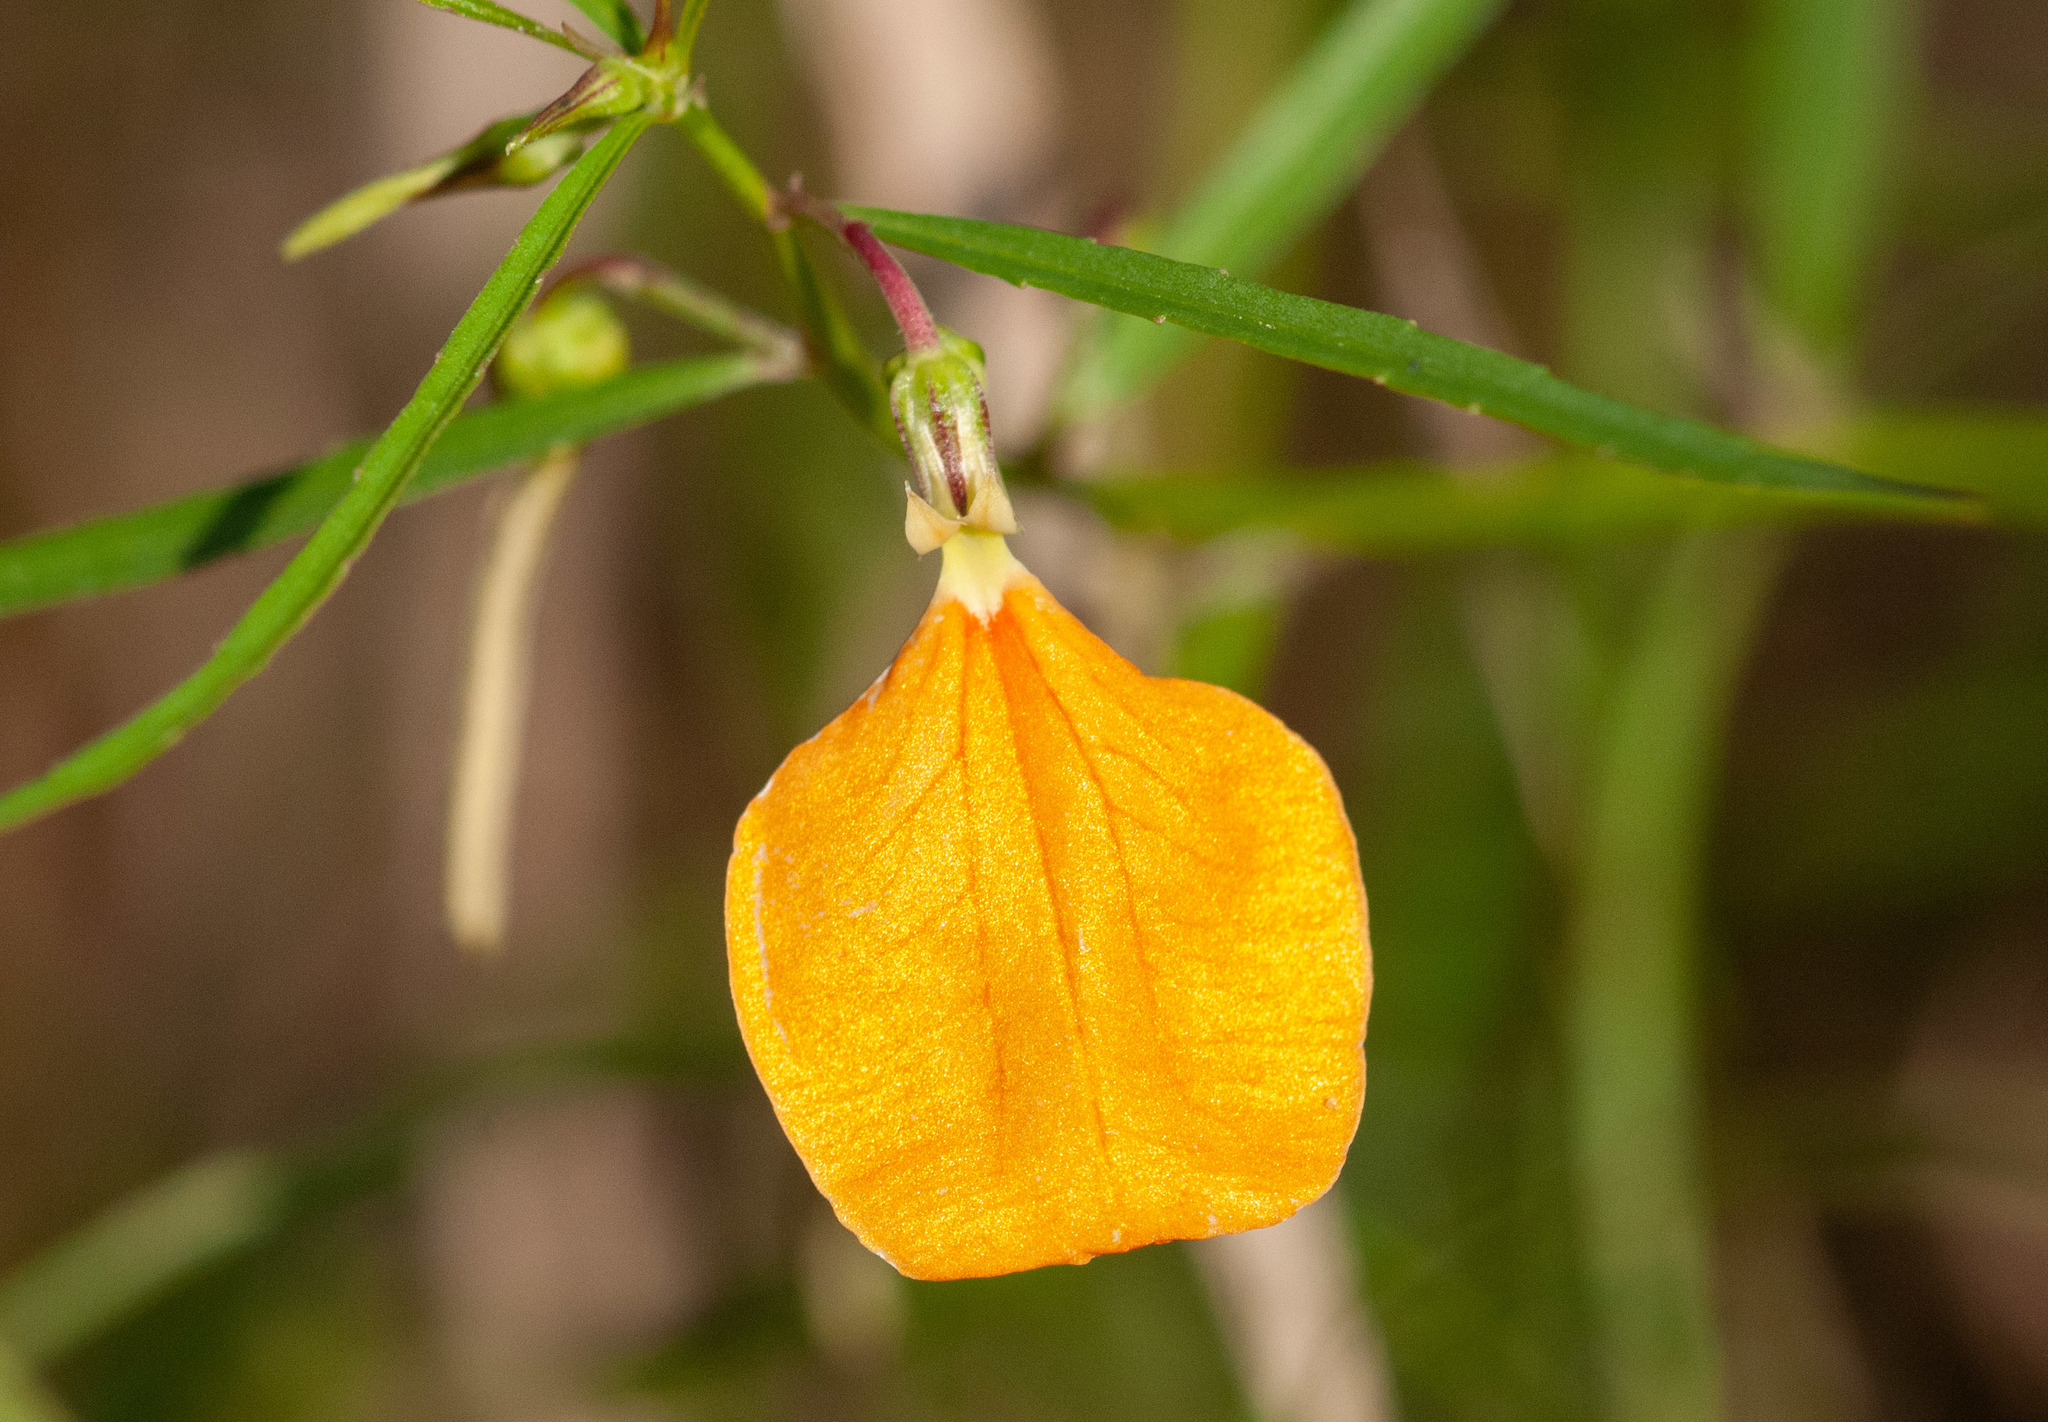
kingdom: Plantae
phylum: Tracheophyta
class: Magnoliopsida
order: Malpighiales
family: Violaceae
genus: Pigea
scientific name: Pigea stellarioides
